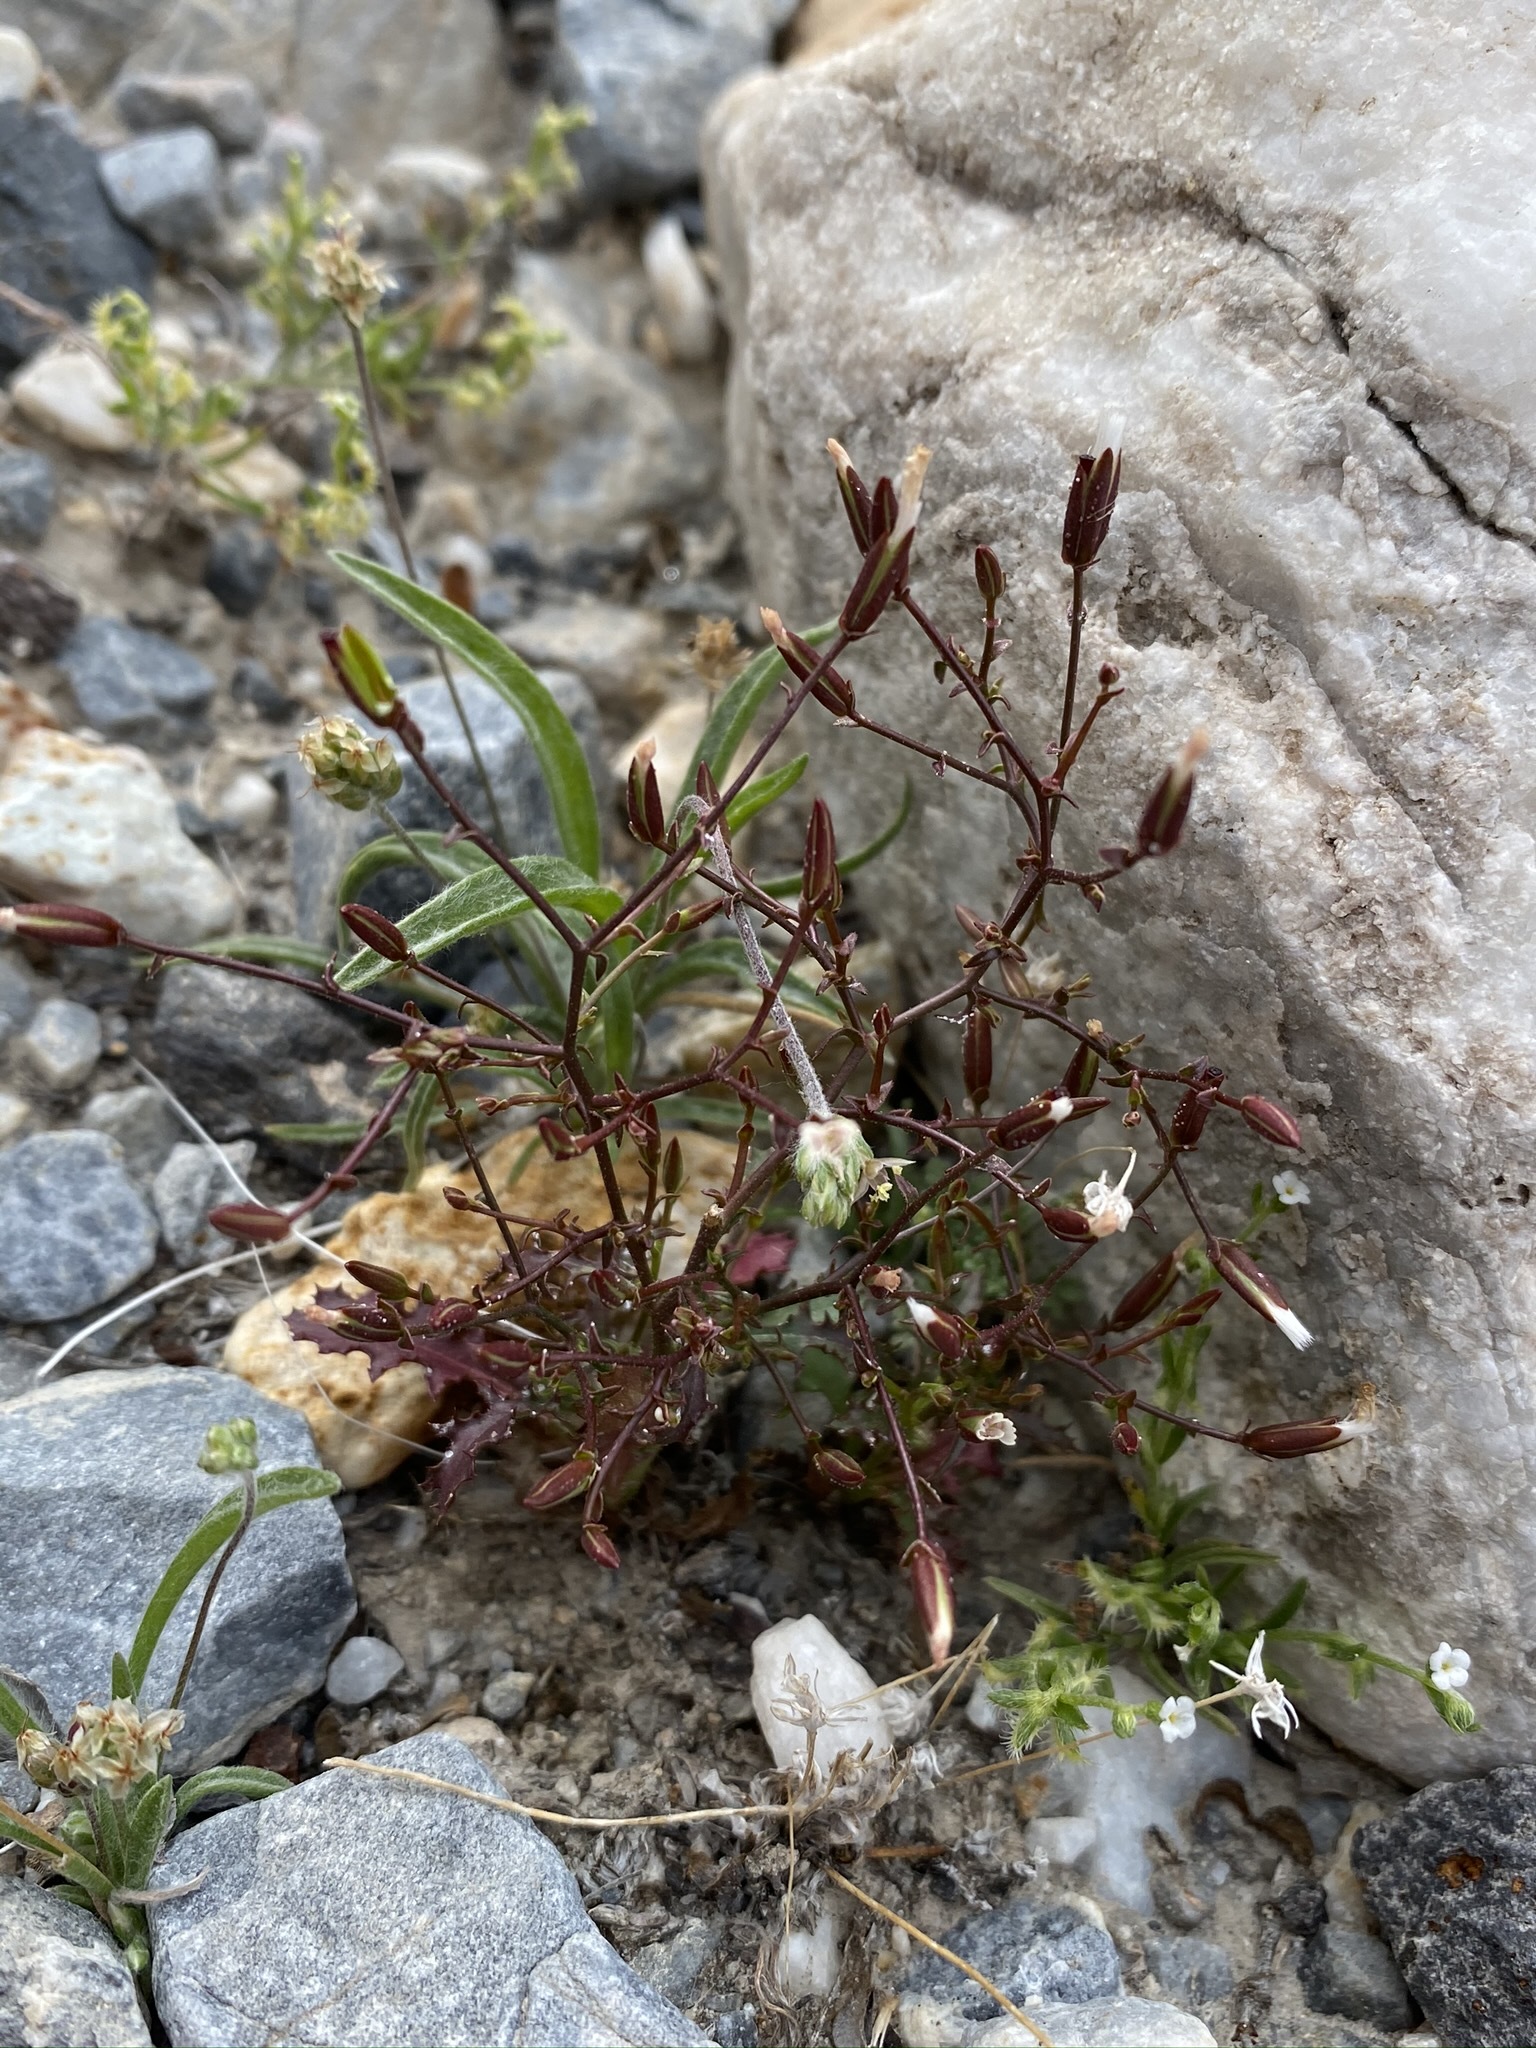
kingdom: Plantae
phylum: Tracheophyta
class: Magnoliopsida
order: Asterales
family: Asteraceae
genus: Lygodesmia
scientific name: Lygodesmia exigua
